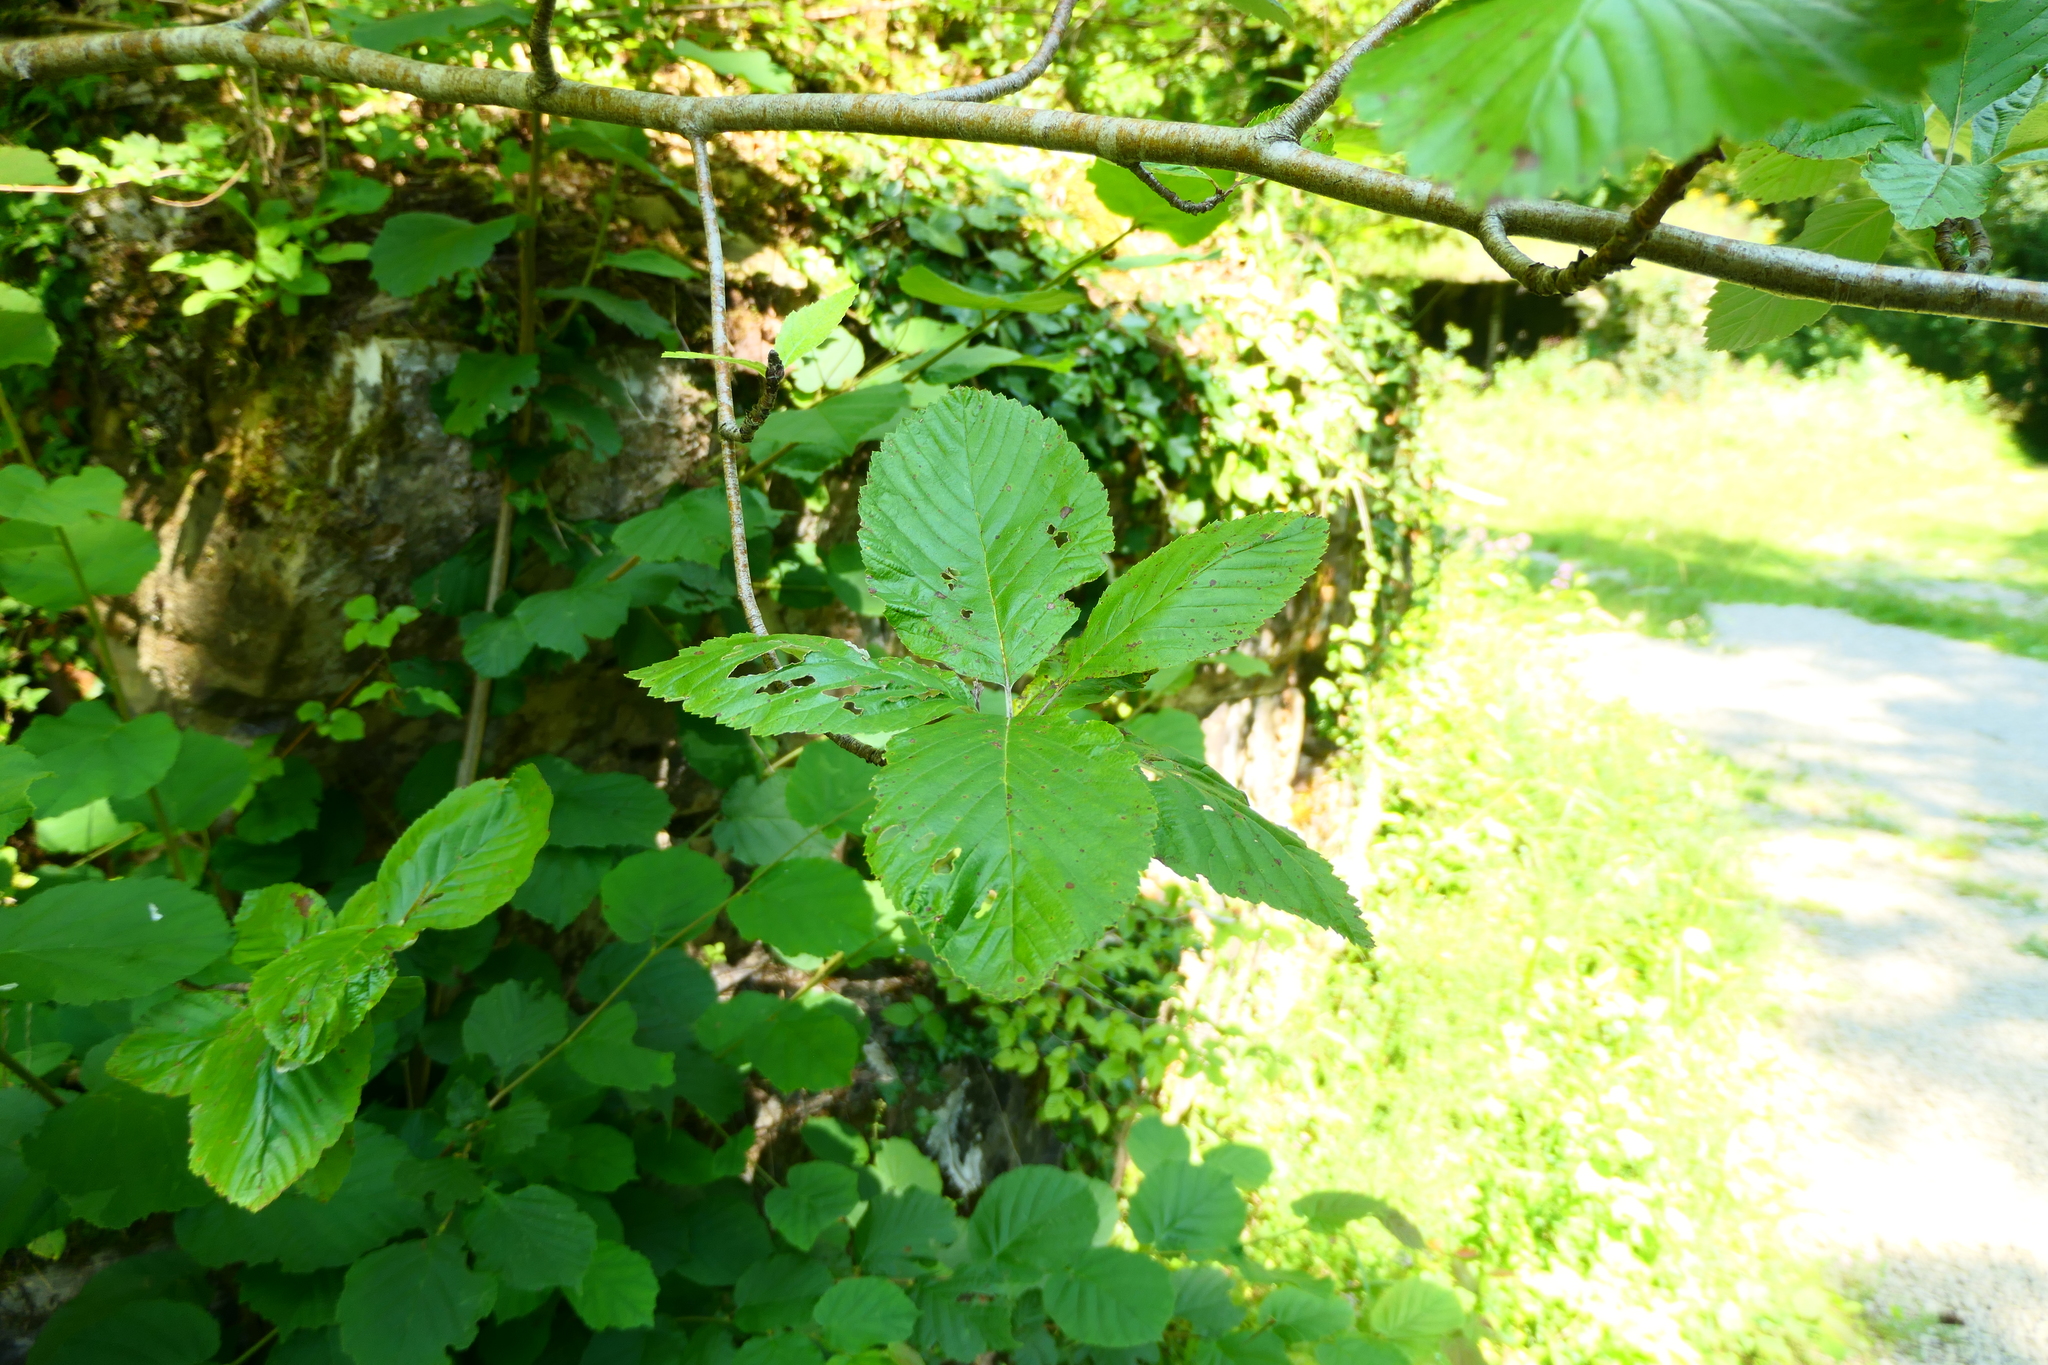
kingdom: Plantae
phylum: Tracheophyta
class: Magnoliopsida
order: Rosales
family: Rosaceae
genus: Aria
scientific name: Aria edulis
